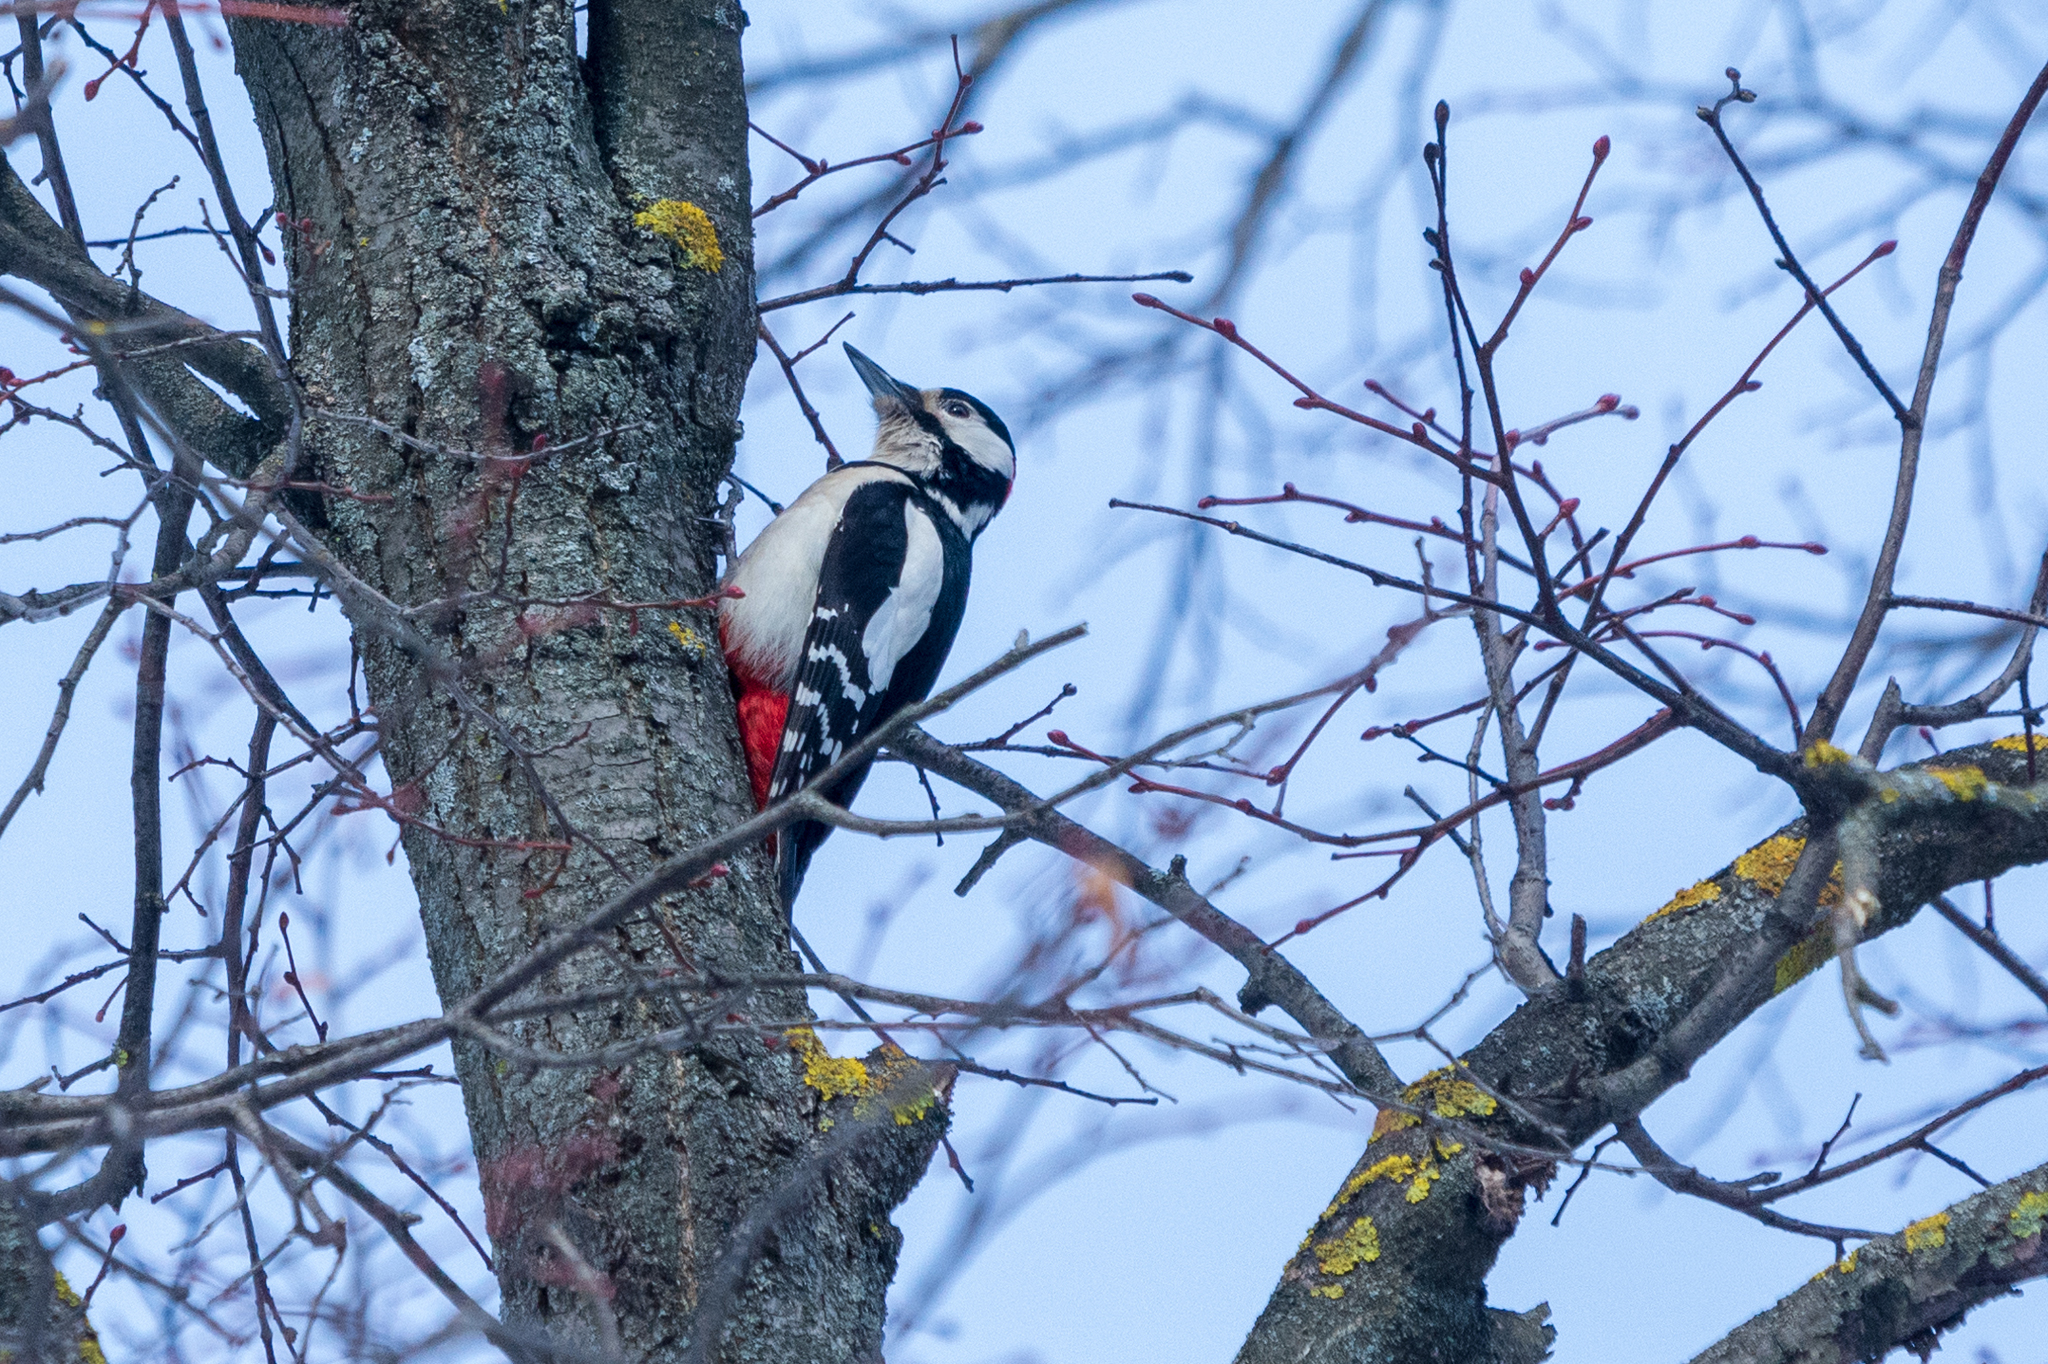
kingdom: Animalia
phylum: Chordata
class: Aves
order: Piciformes
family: Picidae
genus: Dendrocopos
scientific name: Dendrocopos major
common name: Great spotted woodpecker
